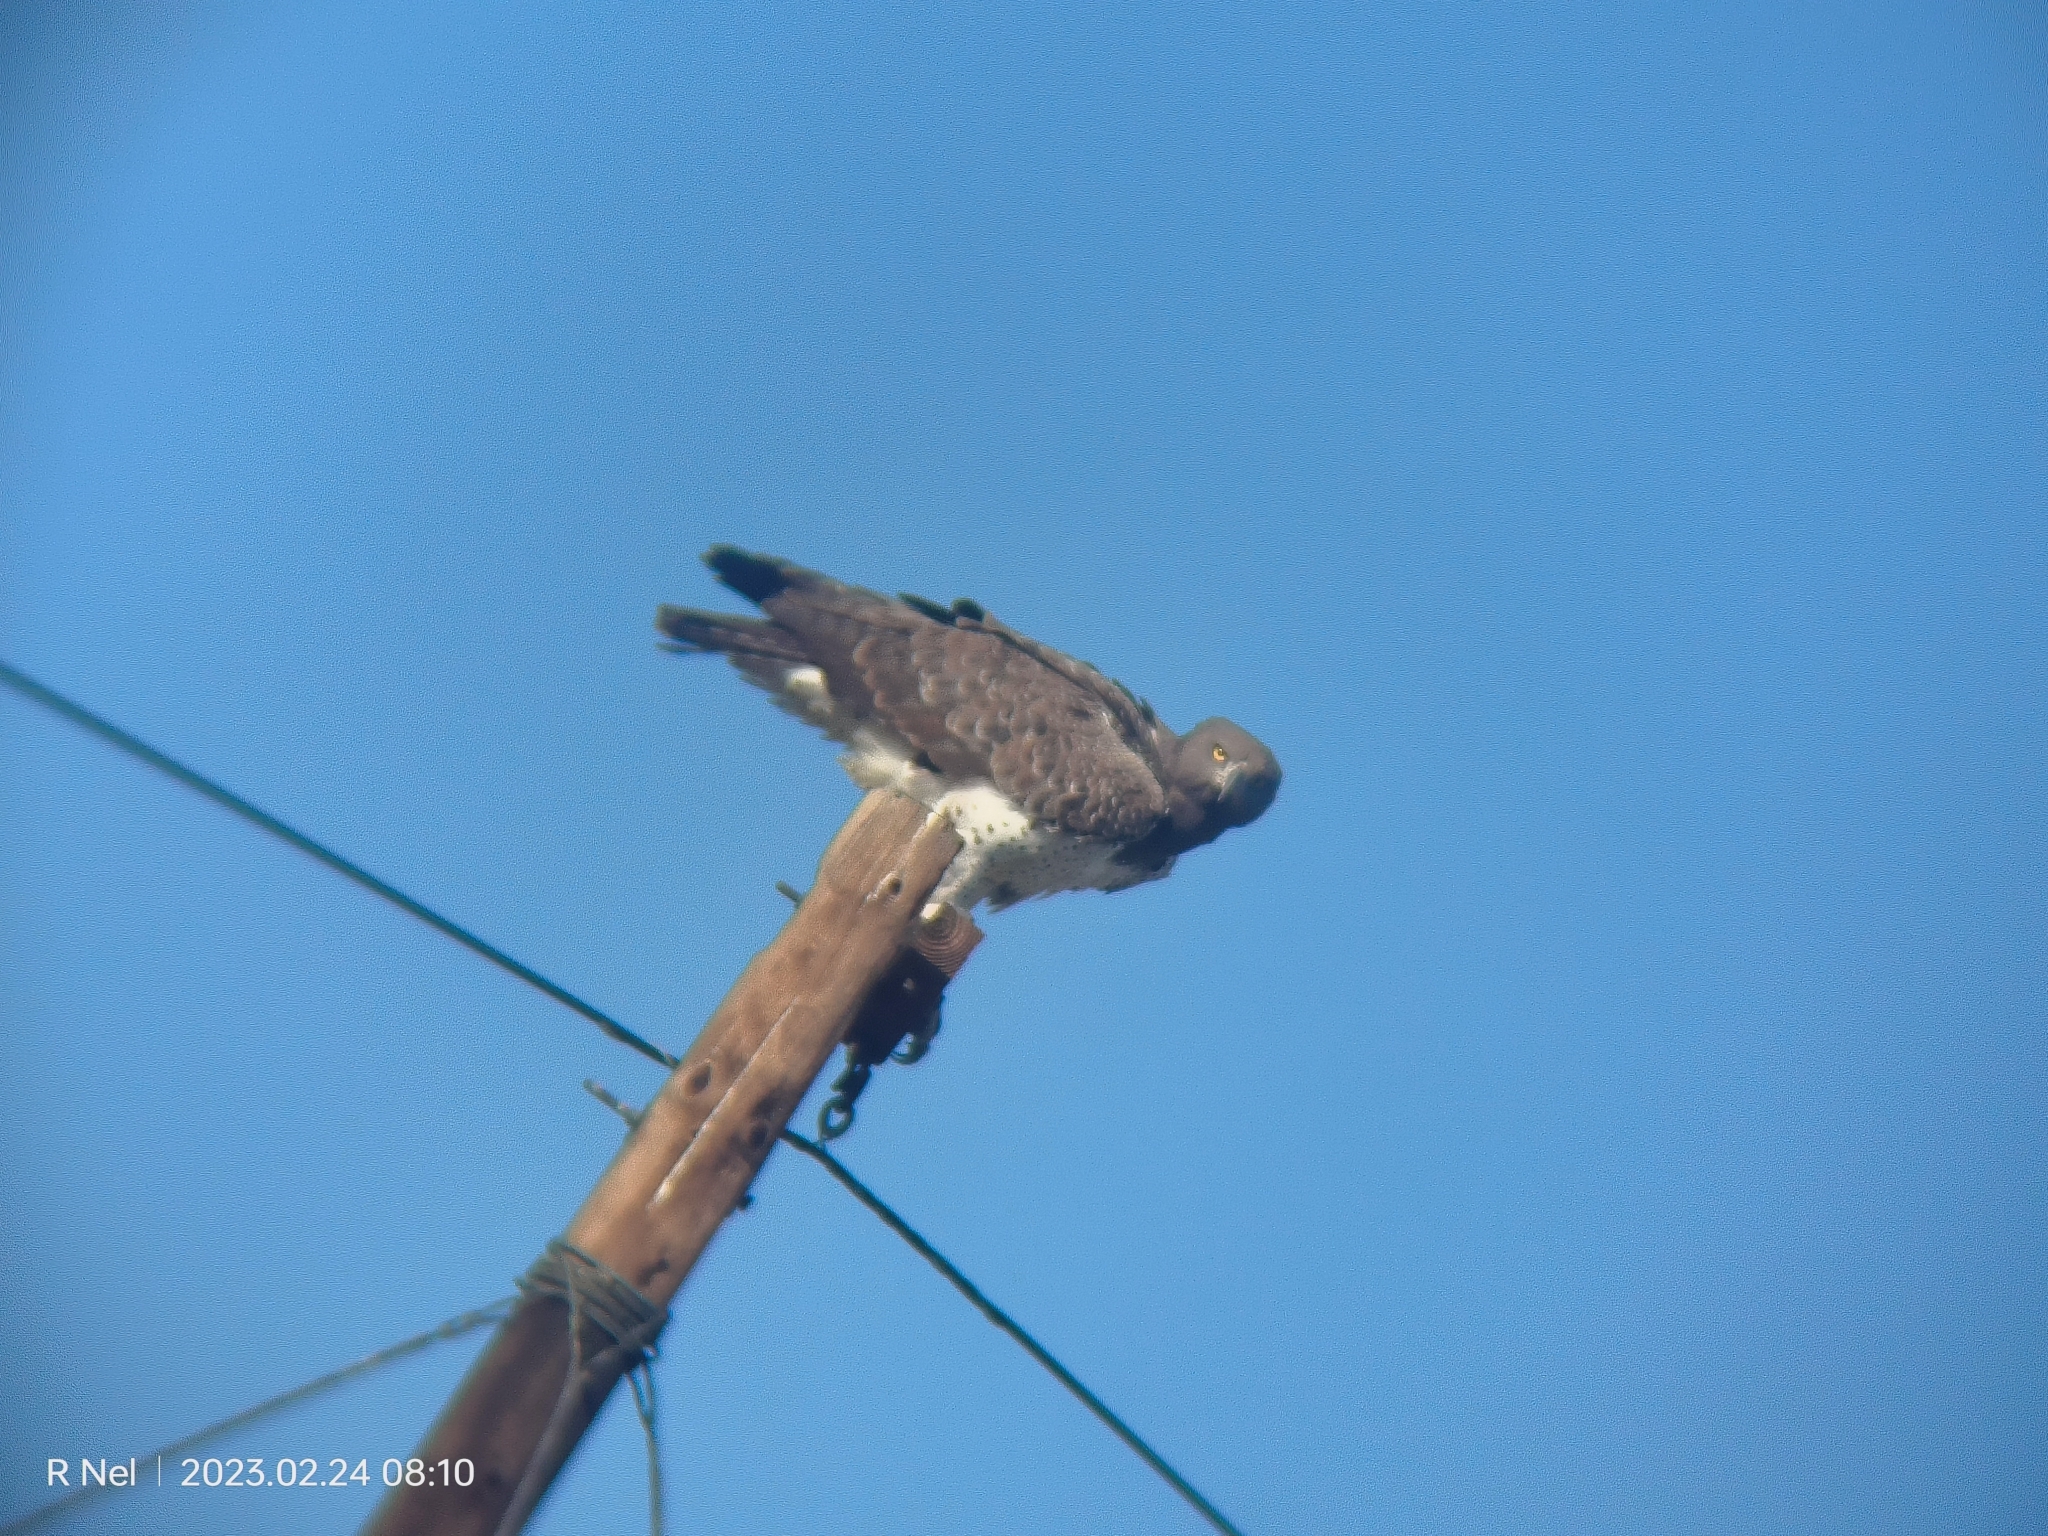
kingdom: Animalia
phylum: Chordata
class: Aves
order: Accipitriformes
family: Accipitridae
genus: Polemaetus
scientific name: Polemaetus bellicosus
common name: Martial eagle
